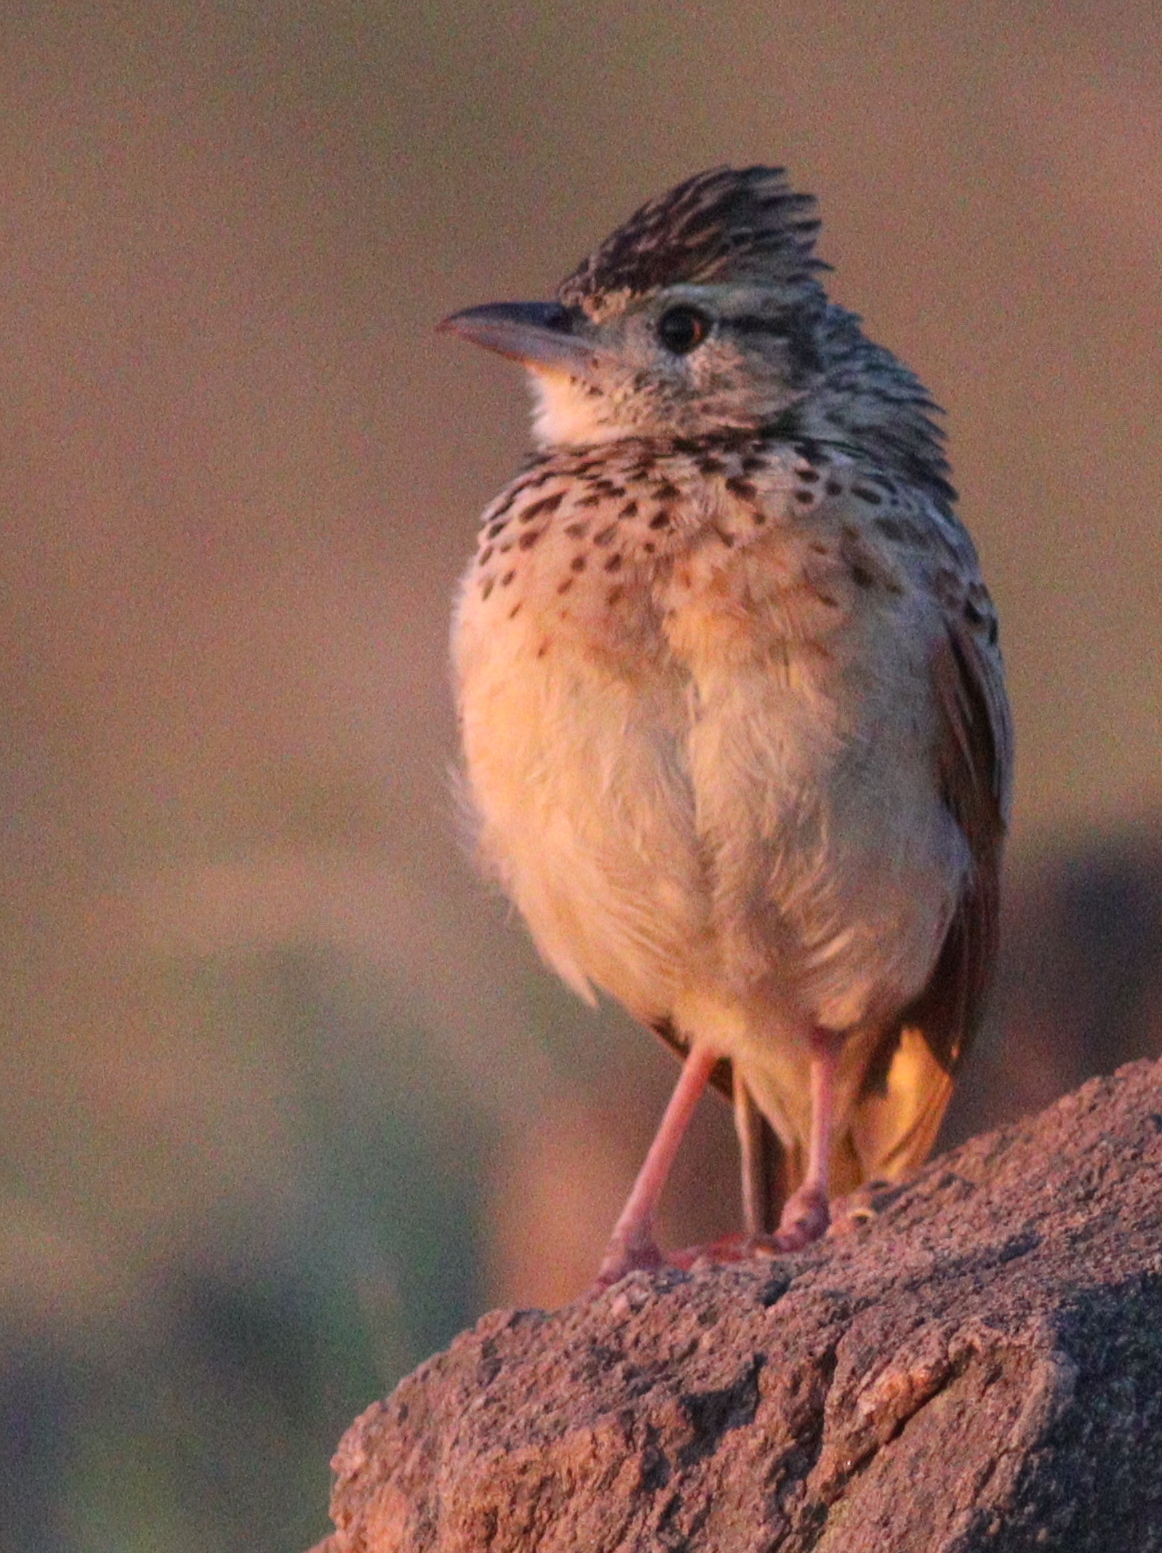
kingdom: Animalia
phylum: Chordata
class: Aves
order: Passeriformes
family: Alaudidae
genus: Mirafra
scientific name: Mirafra africana
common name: Rufous-naped lark
